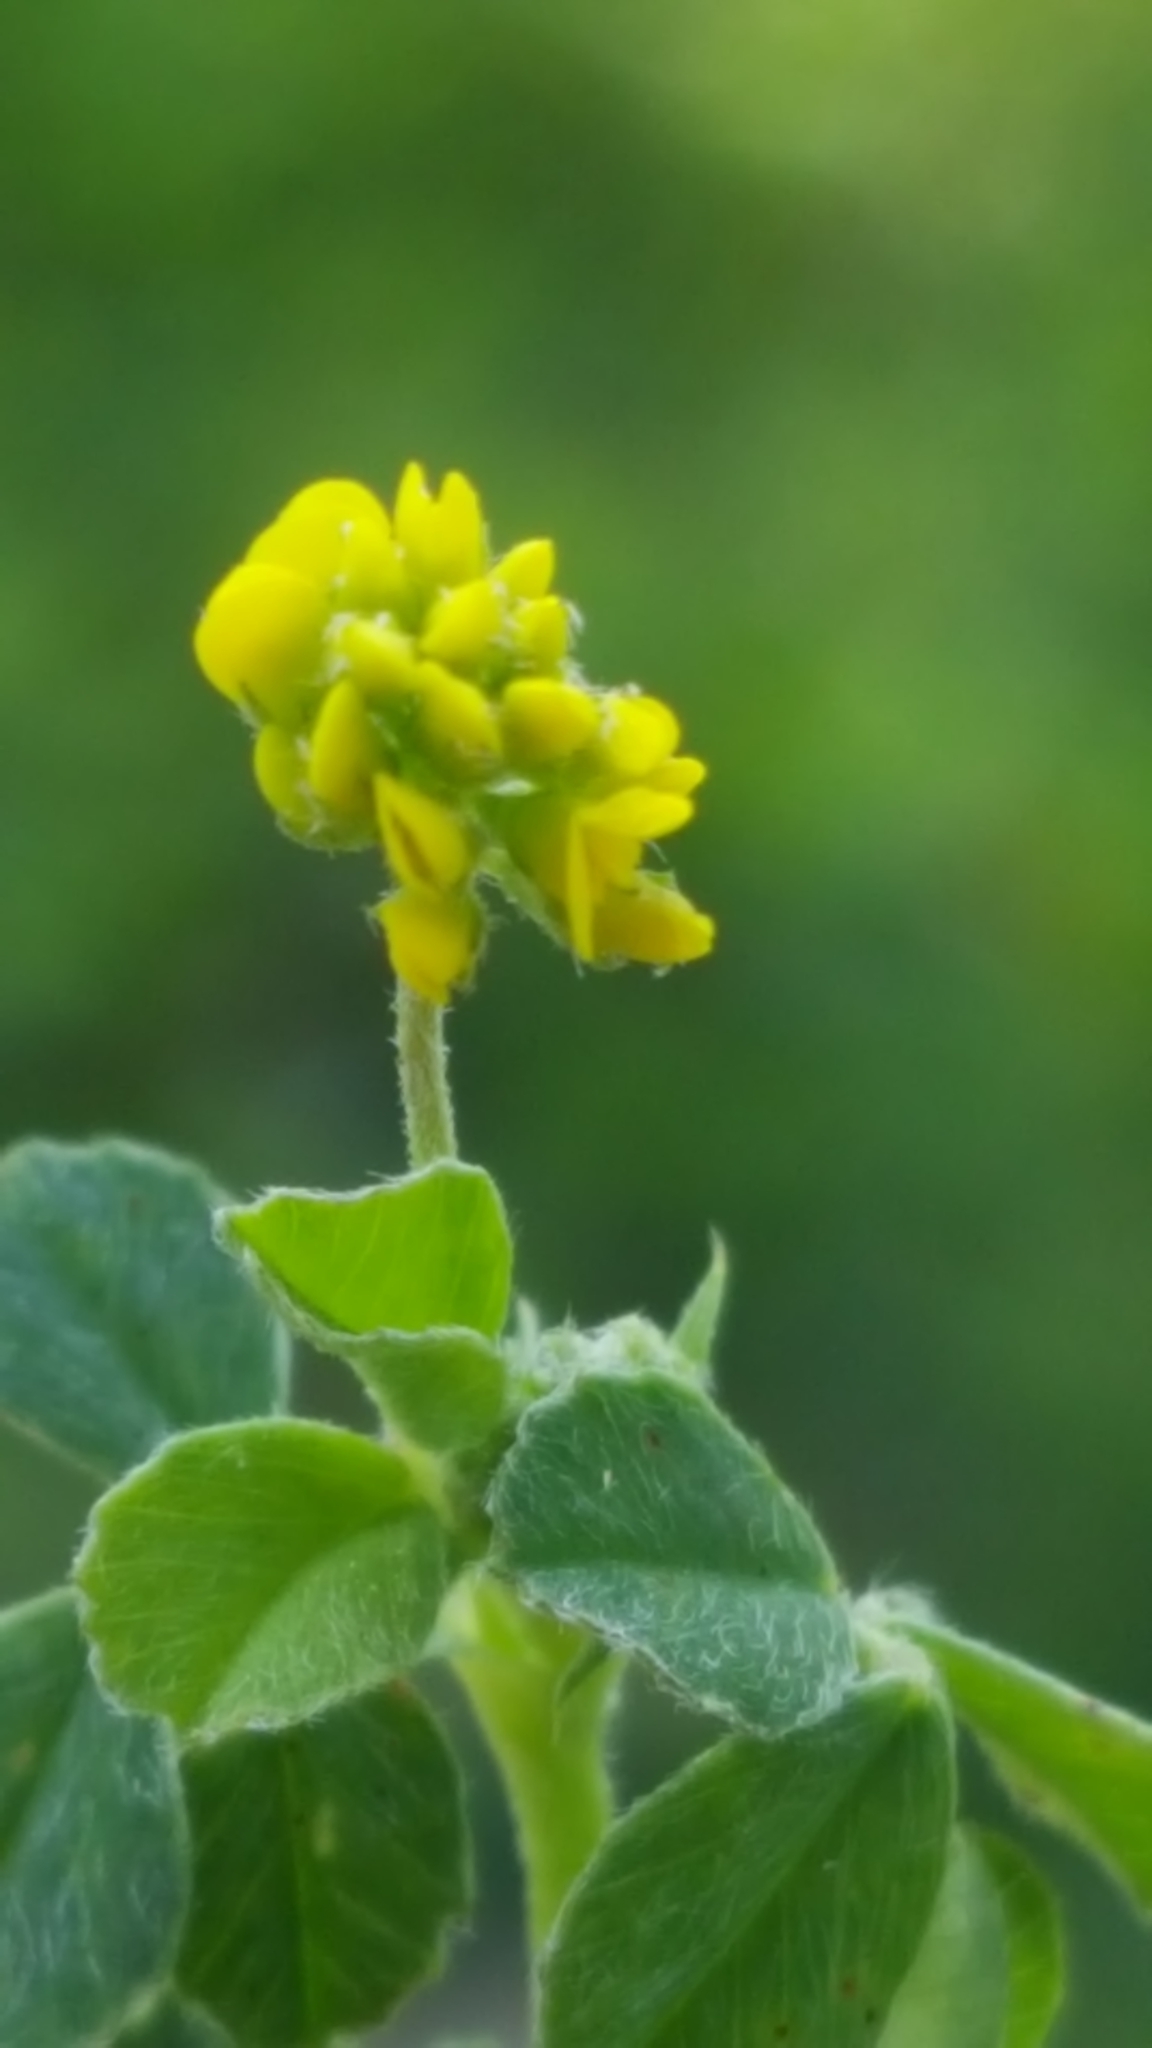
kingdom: Plantae
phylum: Tracheophyta
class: Magnoliopsida
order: Fabales
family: Fabaceae
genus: Medicago
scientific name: Medicago lupulina
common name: Black medick
